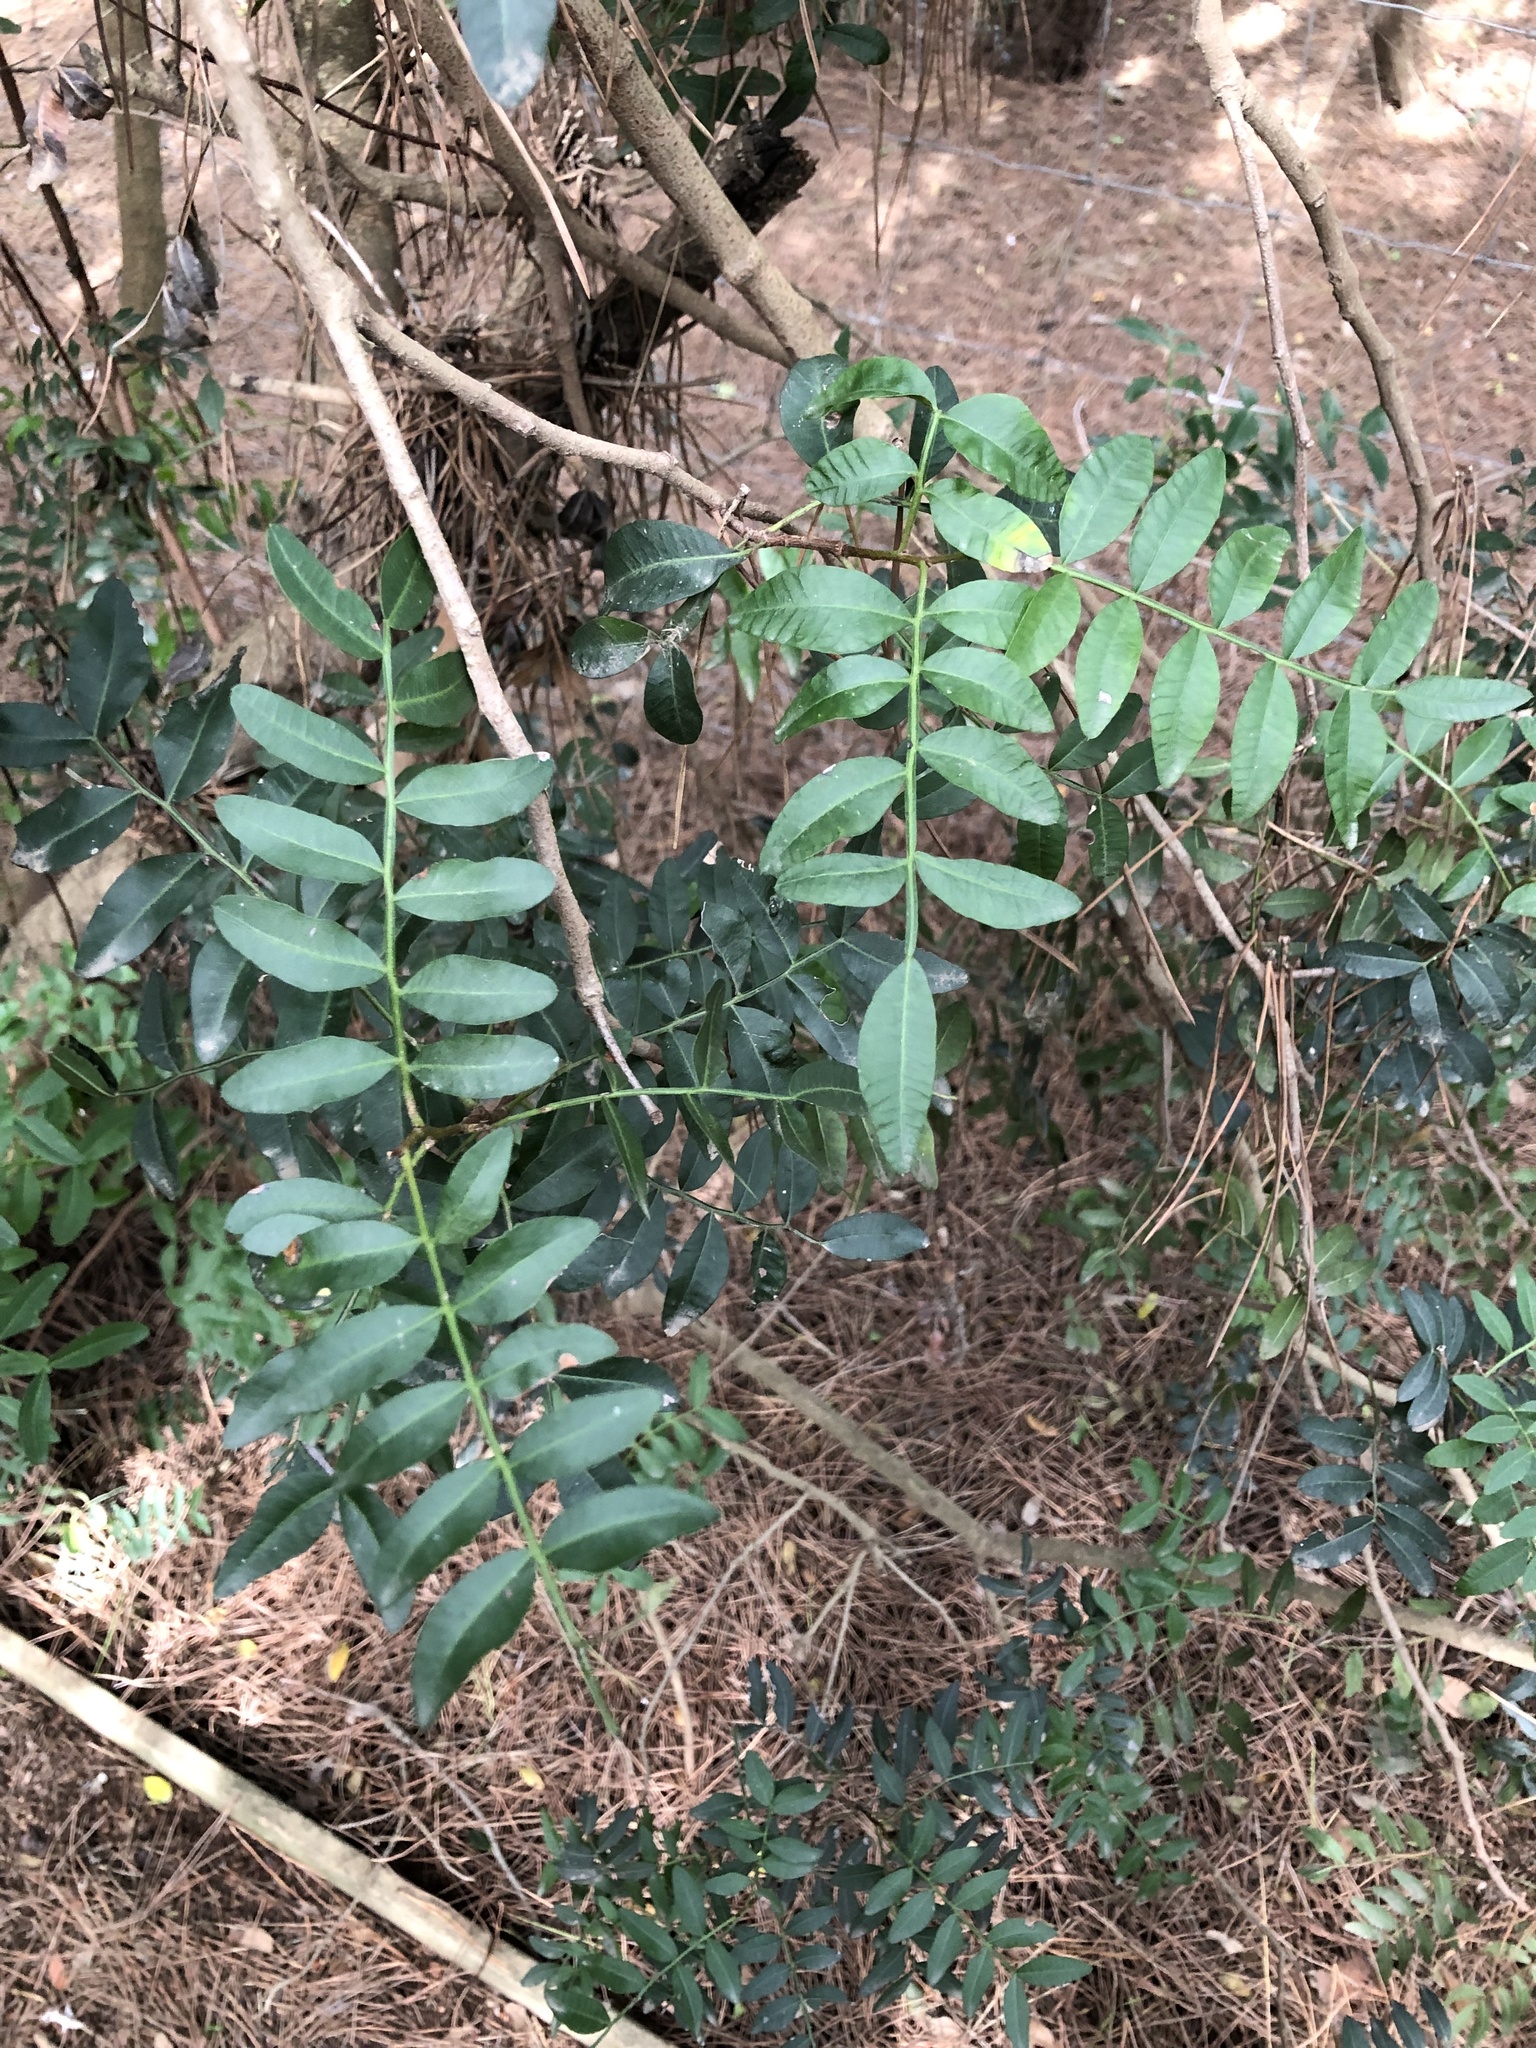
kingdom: Plantae
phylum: Tracheophyta
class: Magnoliopsida
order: Sapindales
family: Anacardiaceae
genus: Pistacia
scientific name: Pistacia saportae
